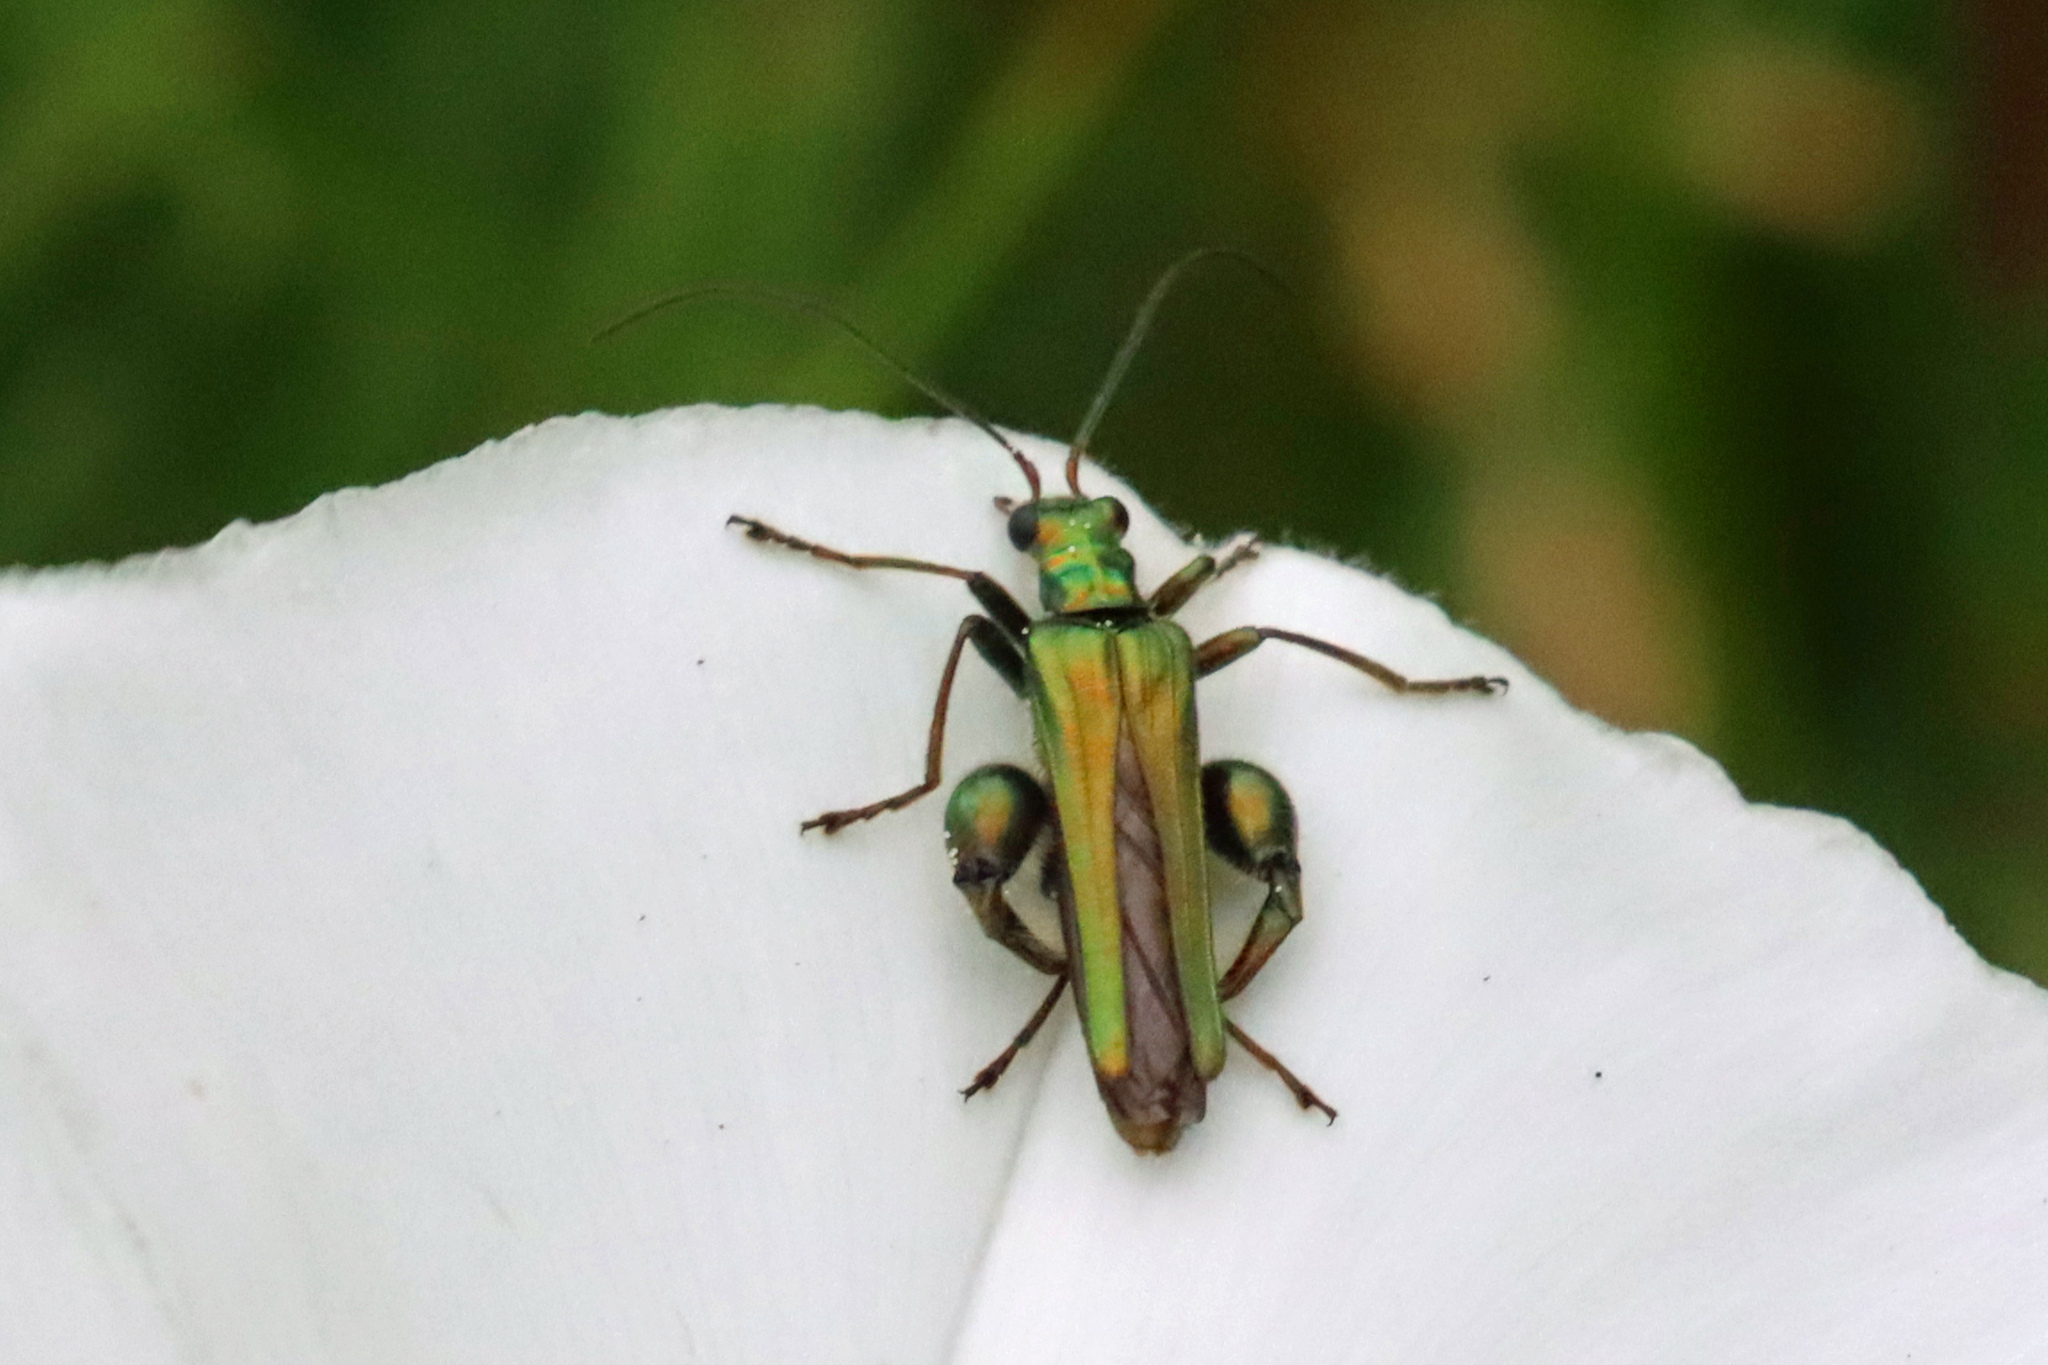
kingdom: Animalia
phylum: Arthropoda
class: Insecta
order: Coleoptera
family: Oedemeridae
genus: Oedemera
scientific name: Oedemera nobilis
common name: Swollen-thighed beetle
